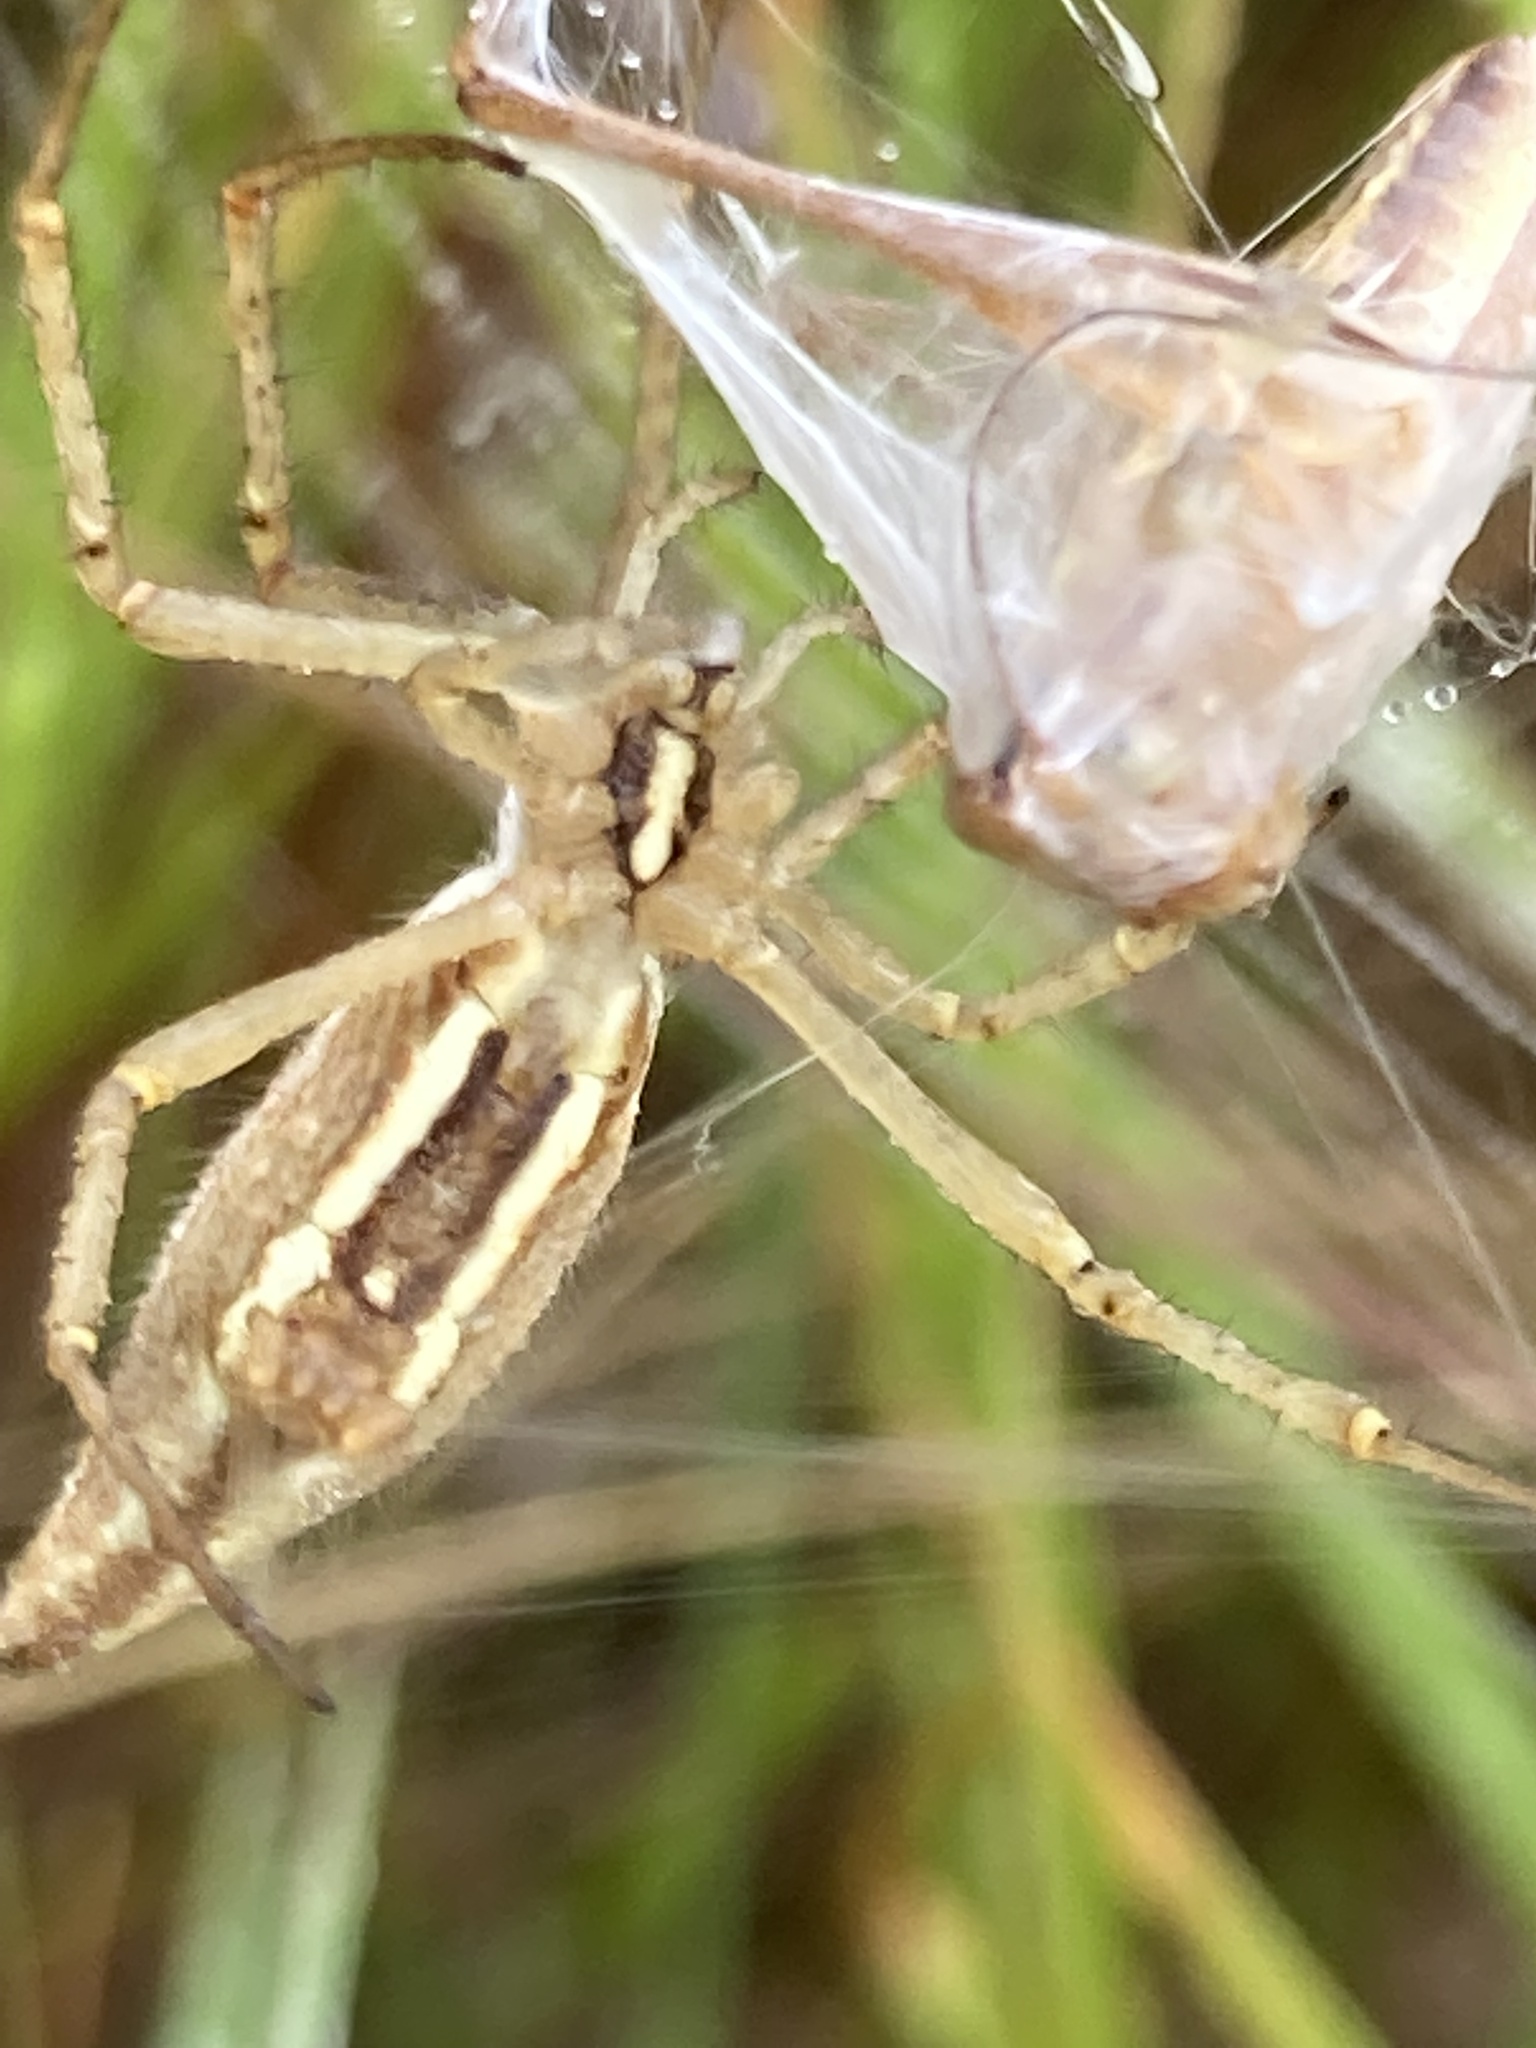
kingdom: Animalia
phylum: Arthropoda
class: Arachnida
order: Araneae
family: Araneidae
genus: Argiope
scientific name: Argiope protensa
